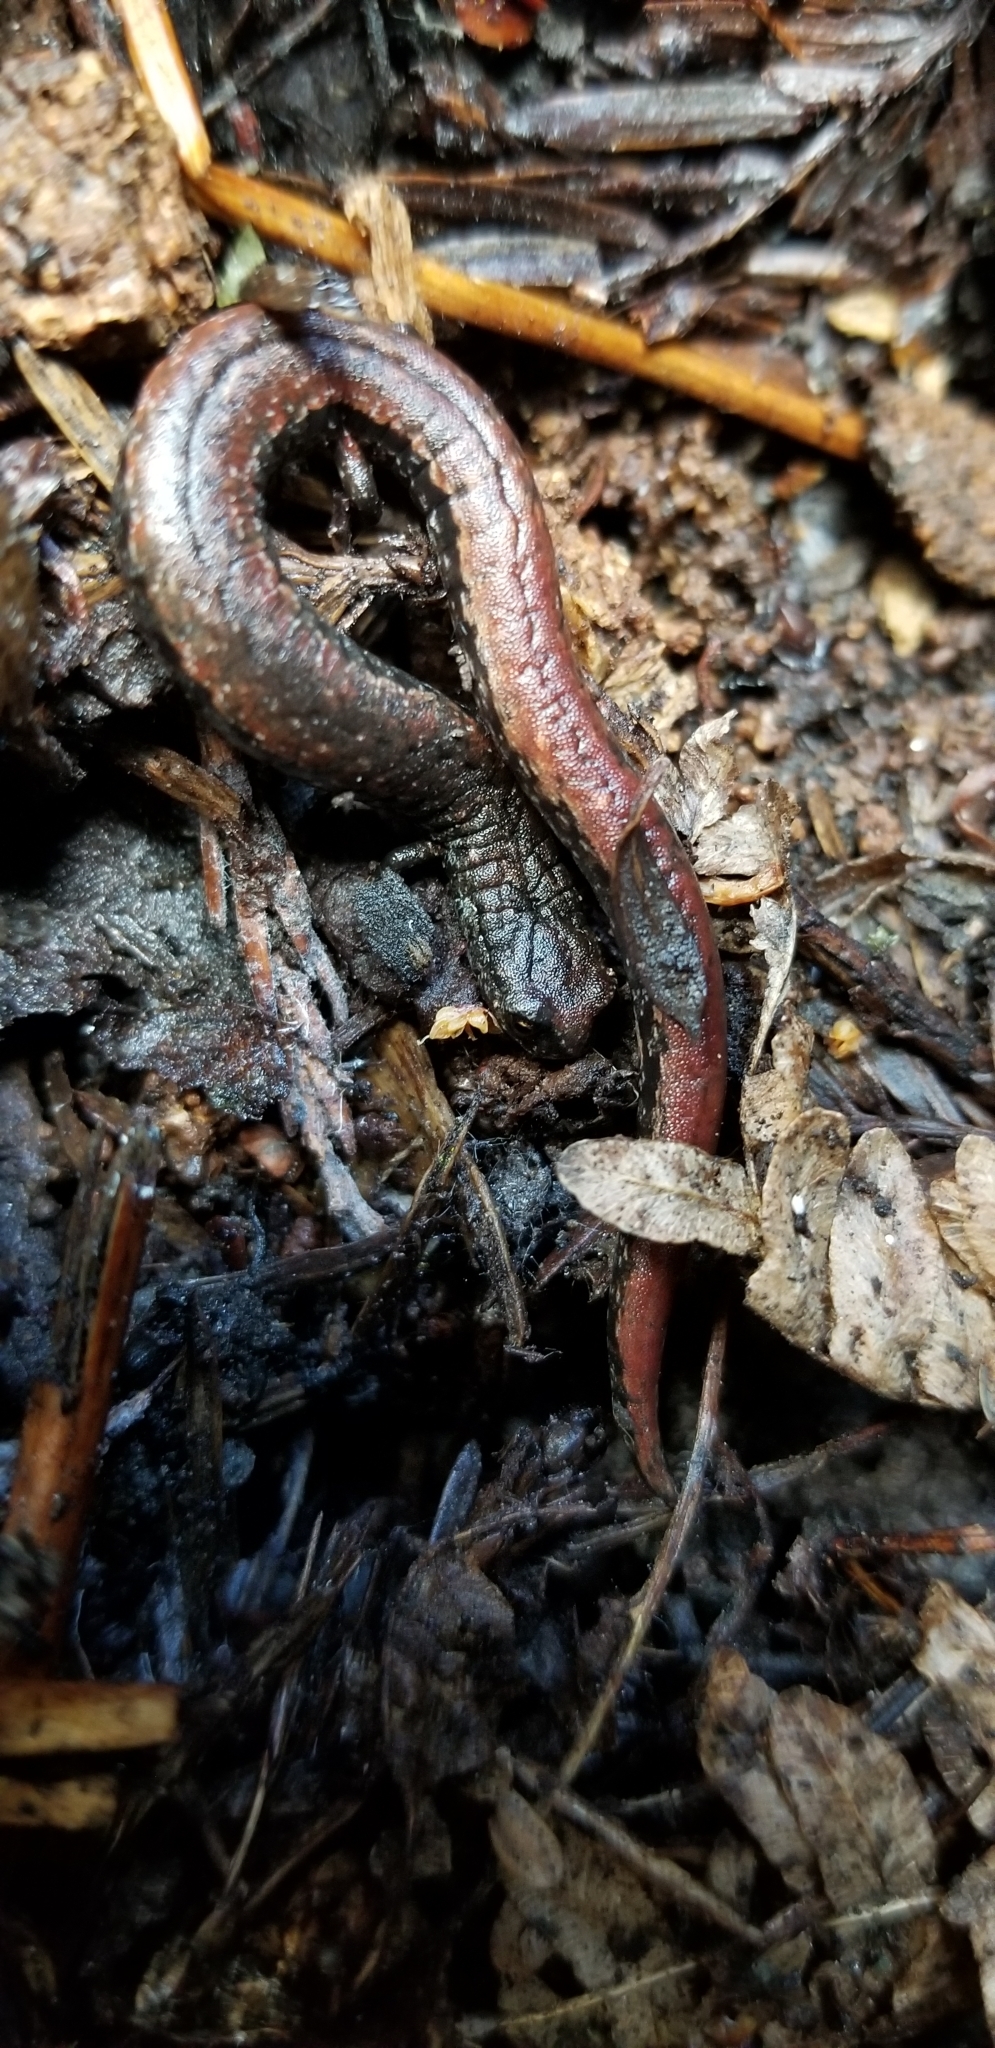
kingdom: Animalia
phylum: Chordata
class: Amphibia
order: Caudata
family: Plethodontidae
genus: Batrachoseps
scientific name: Batrachoseps attenuatus
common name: California slender salamander
